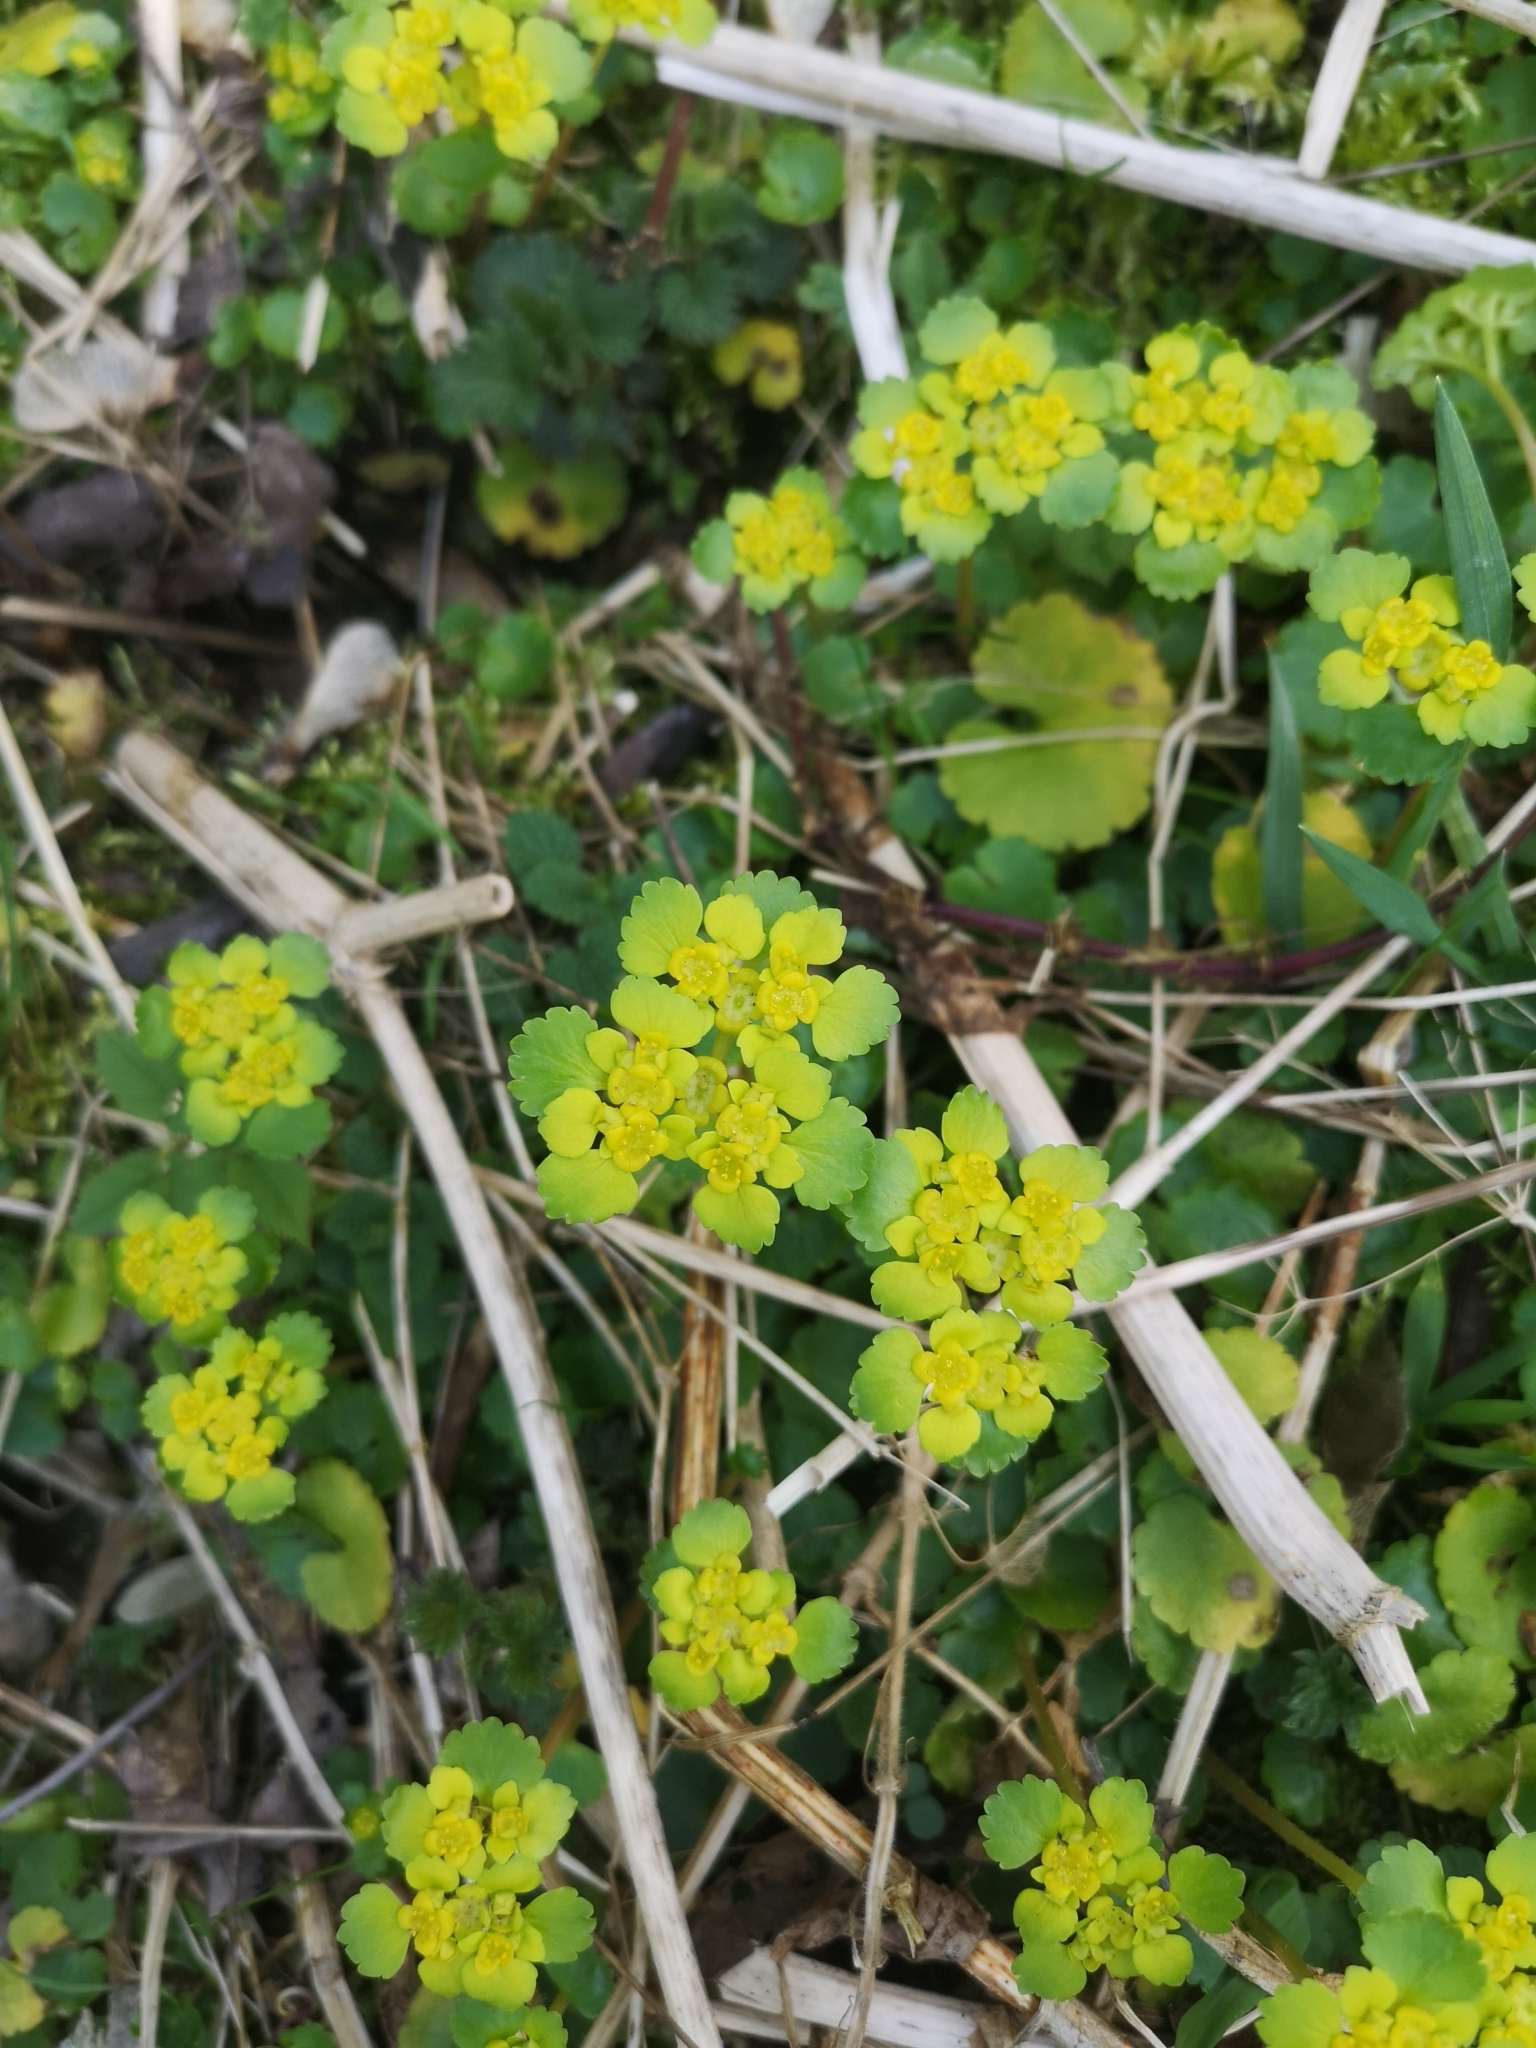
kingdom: Plantae
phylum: Tracheophyta
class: Magnoliopsida
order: Saxifragales
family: Saxifragaceae
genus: Chrysosplenium
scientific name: Chrysosplenium alternifolium
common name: Alternate-leaved golden-saxifrage
